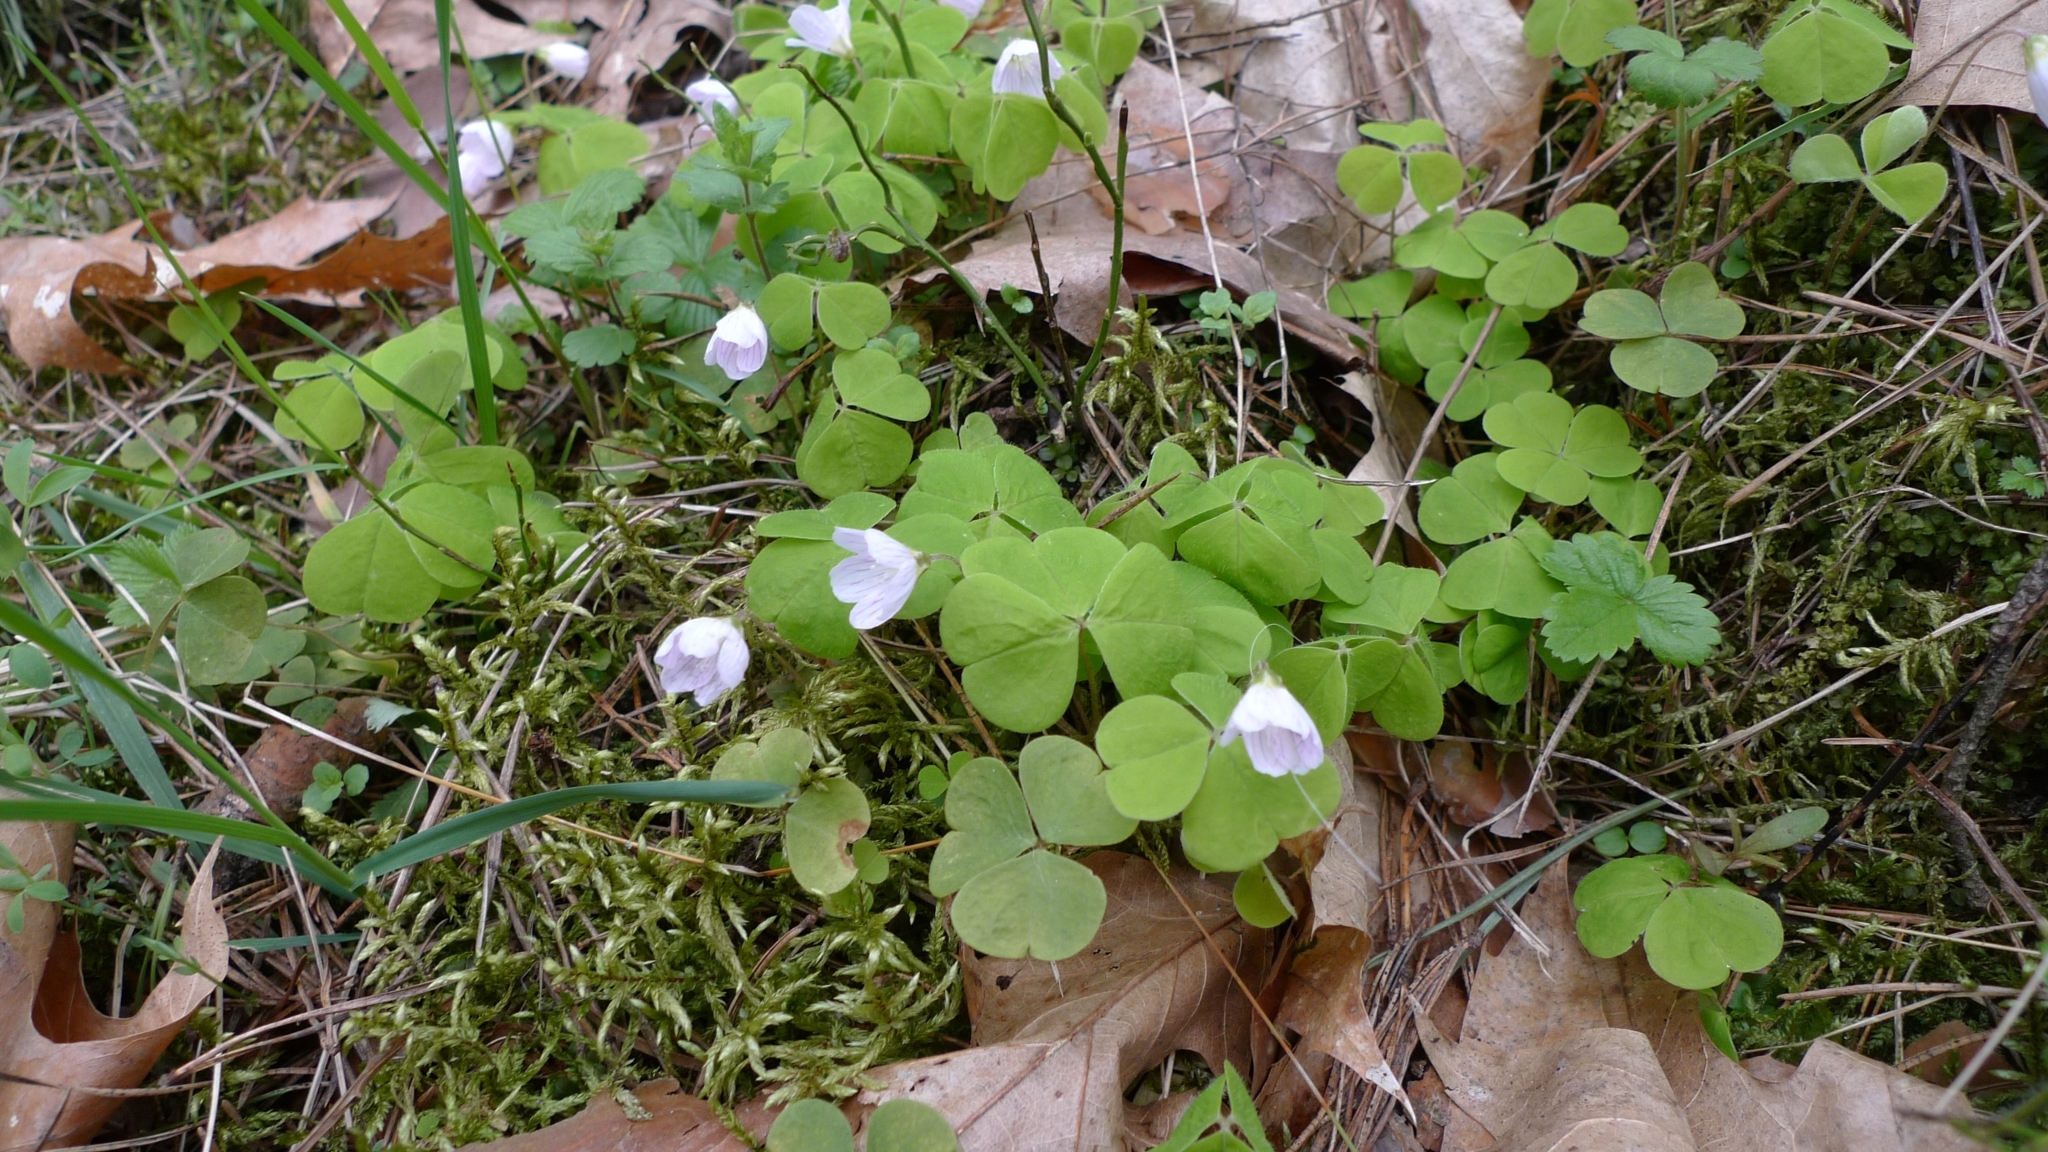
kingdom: Plantae
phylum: Tracheophyta
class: Magnoliopsida
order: Oxalidales
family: Oxalidaceae
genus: Oxalis
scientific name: Oxalis acetosella
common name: Wood-sorrel
